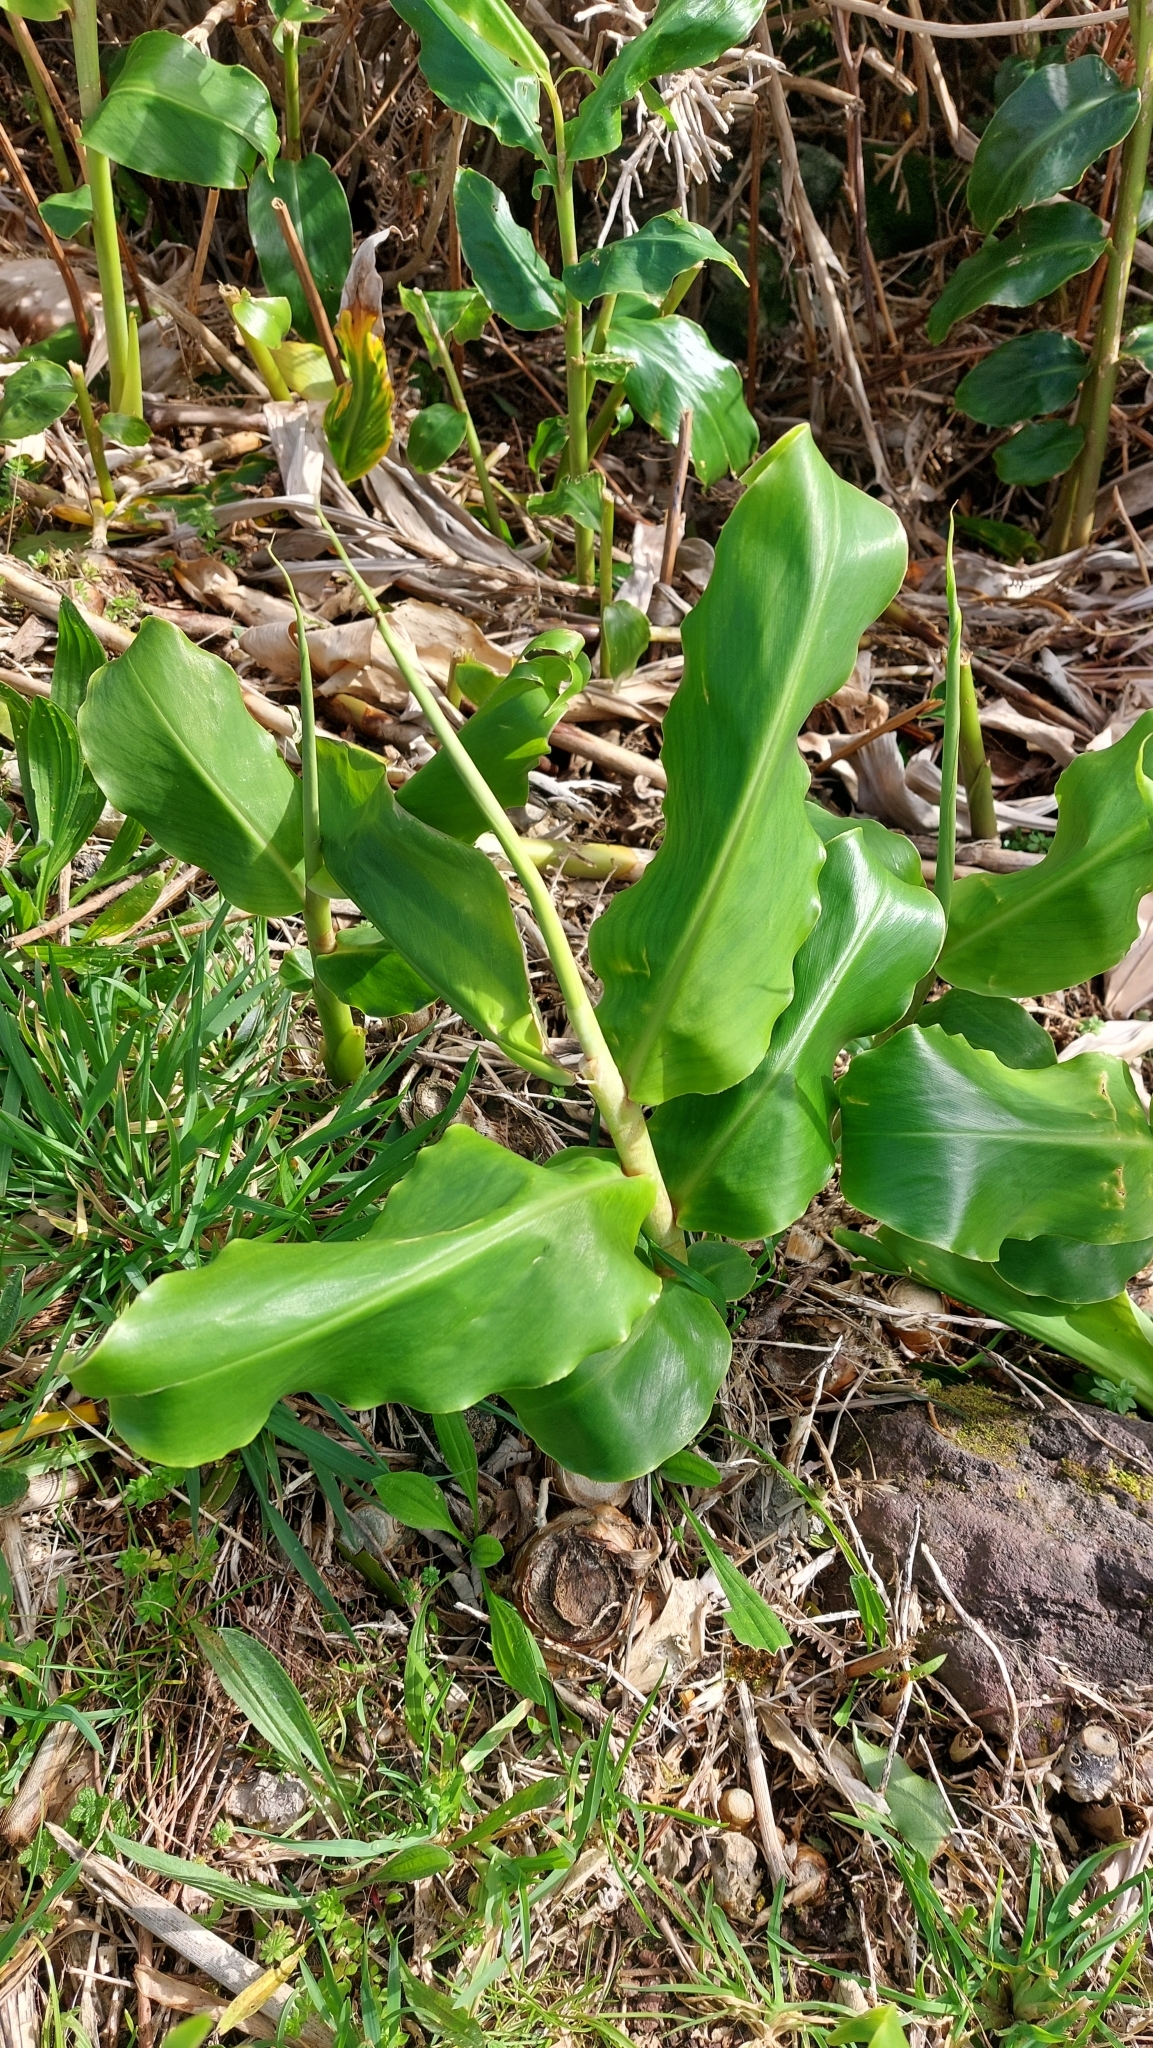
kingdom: Plantae
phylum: Tracheophyta
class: Liliopsida
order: Zingiberales
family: Zingiberaceae
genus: Hedychium
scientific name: Hedychium gardnerianum
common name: Himalayan ginger
